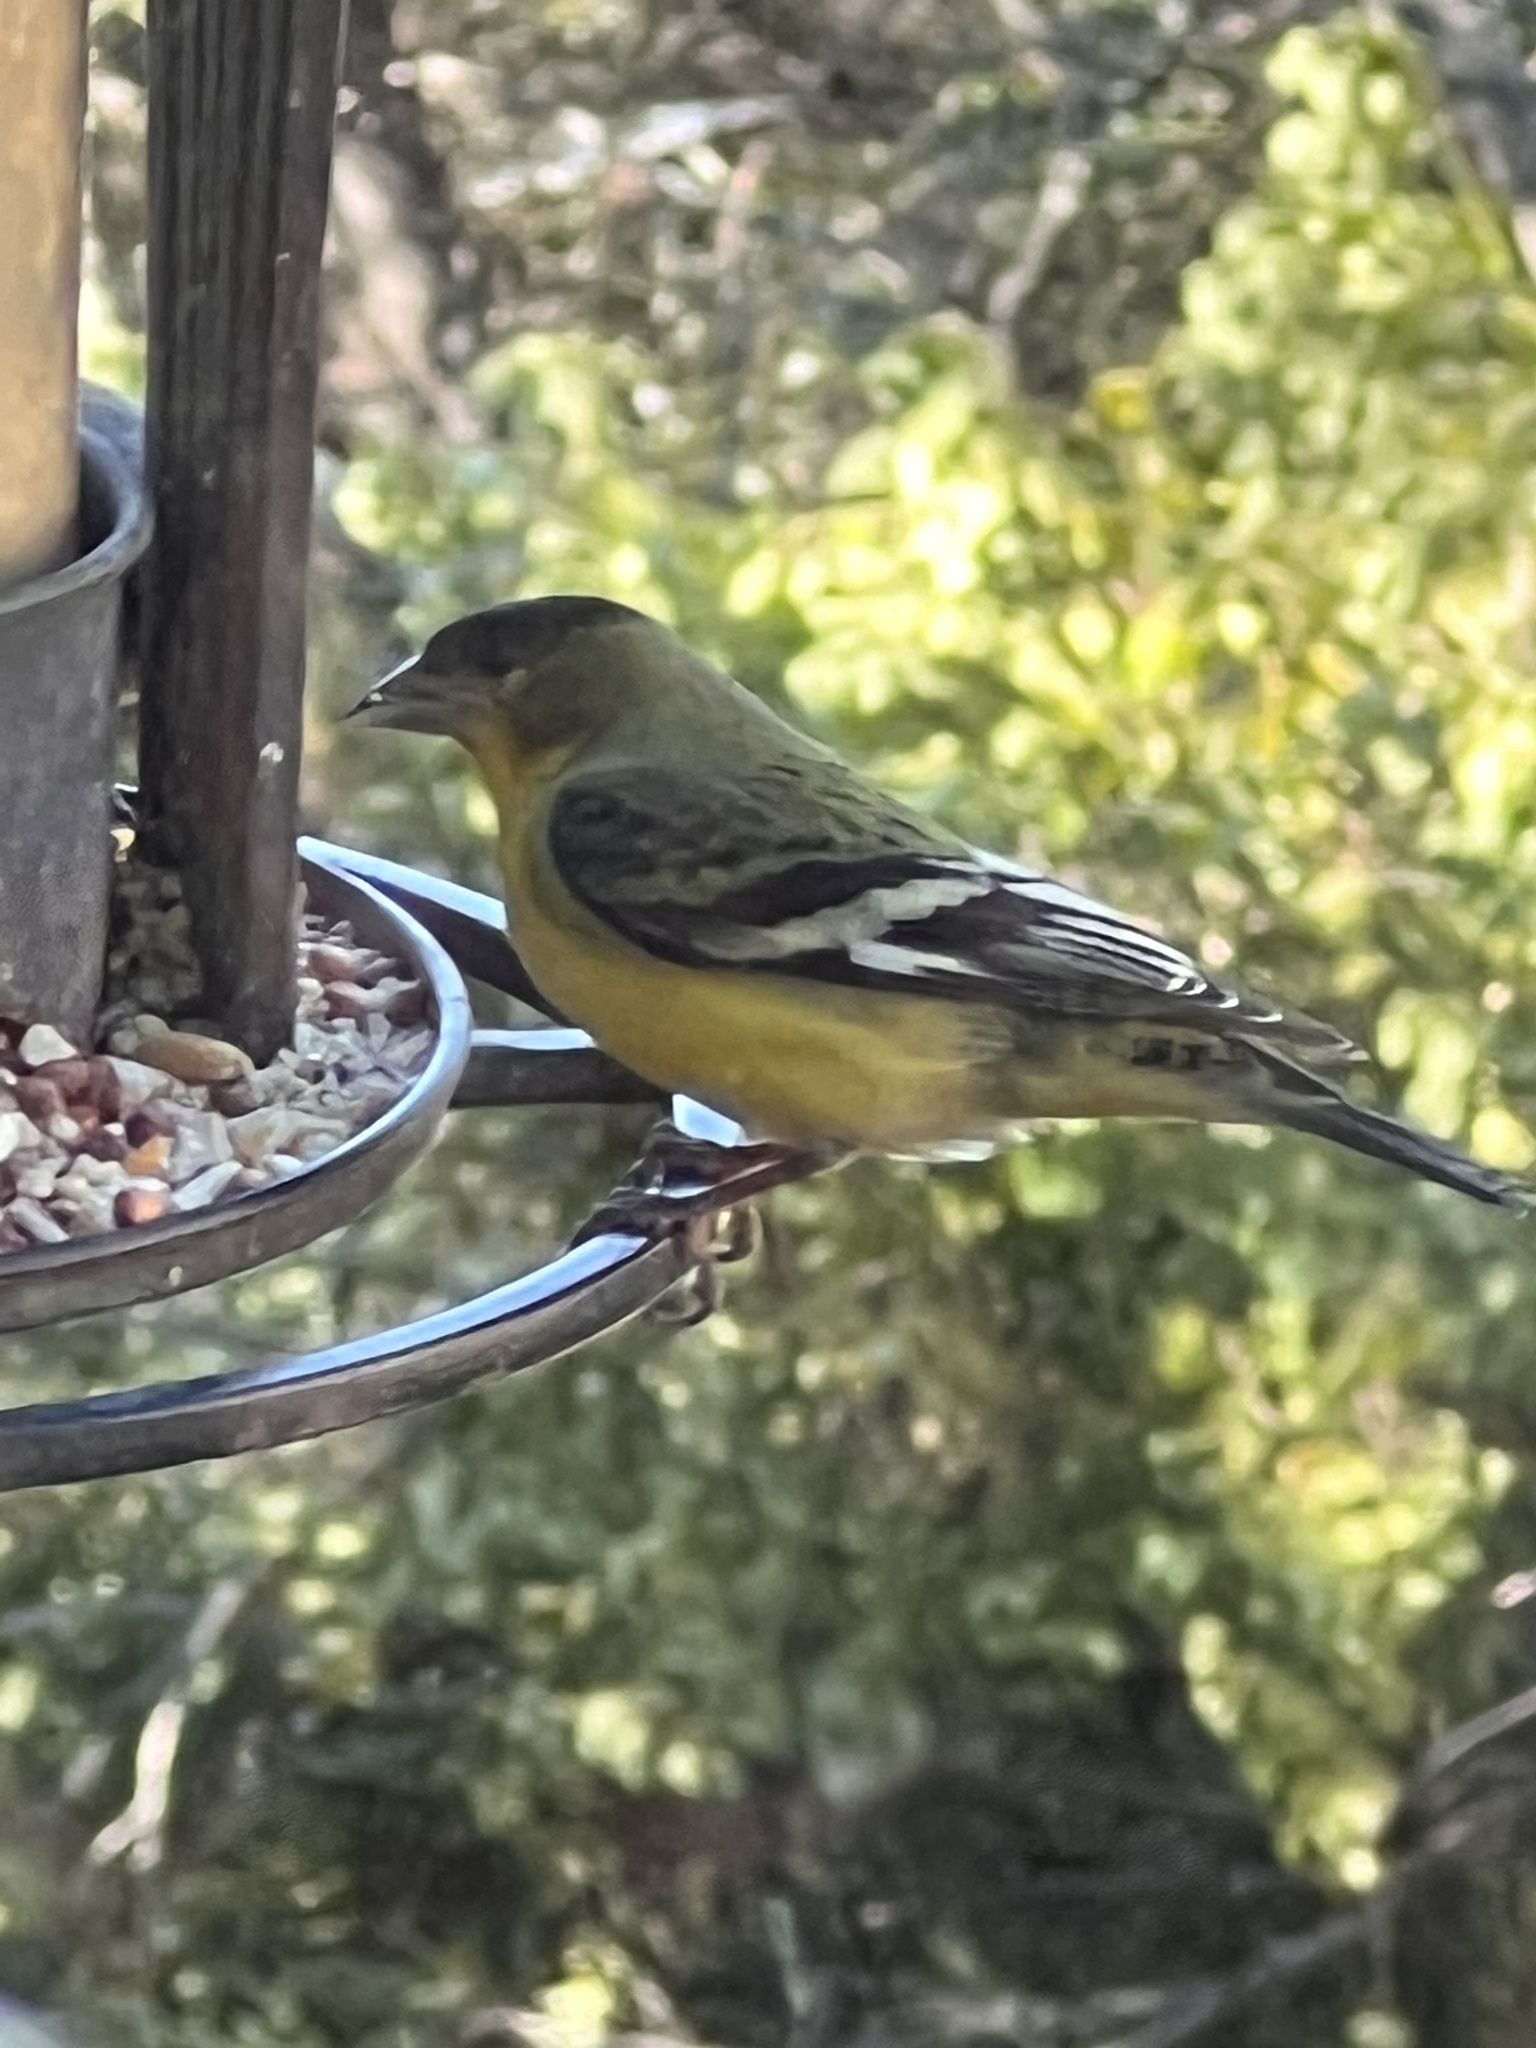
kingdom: Animalia
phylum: Chordata
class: Aves
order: Passeriformes
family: Fringillidae
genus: Spinus
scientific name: Spinus psaltria
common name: Lesser goldfinch
